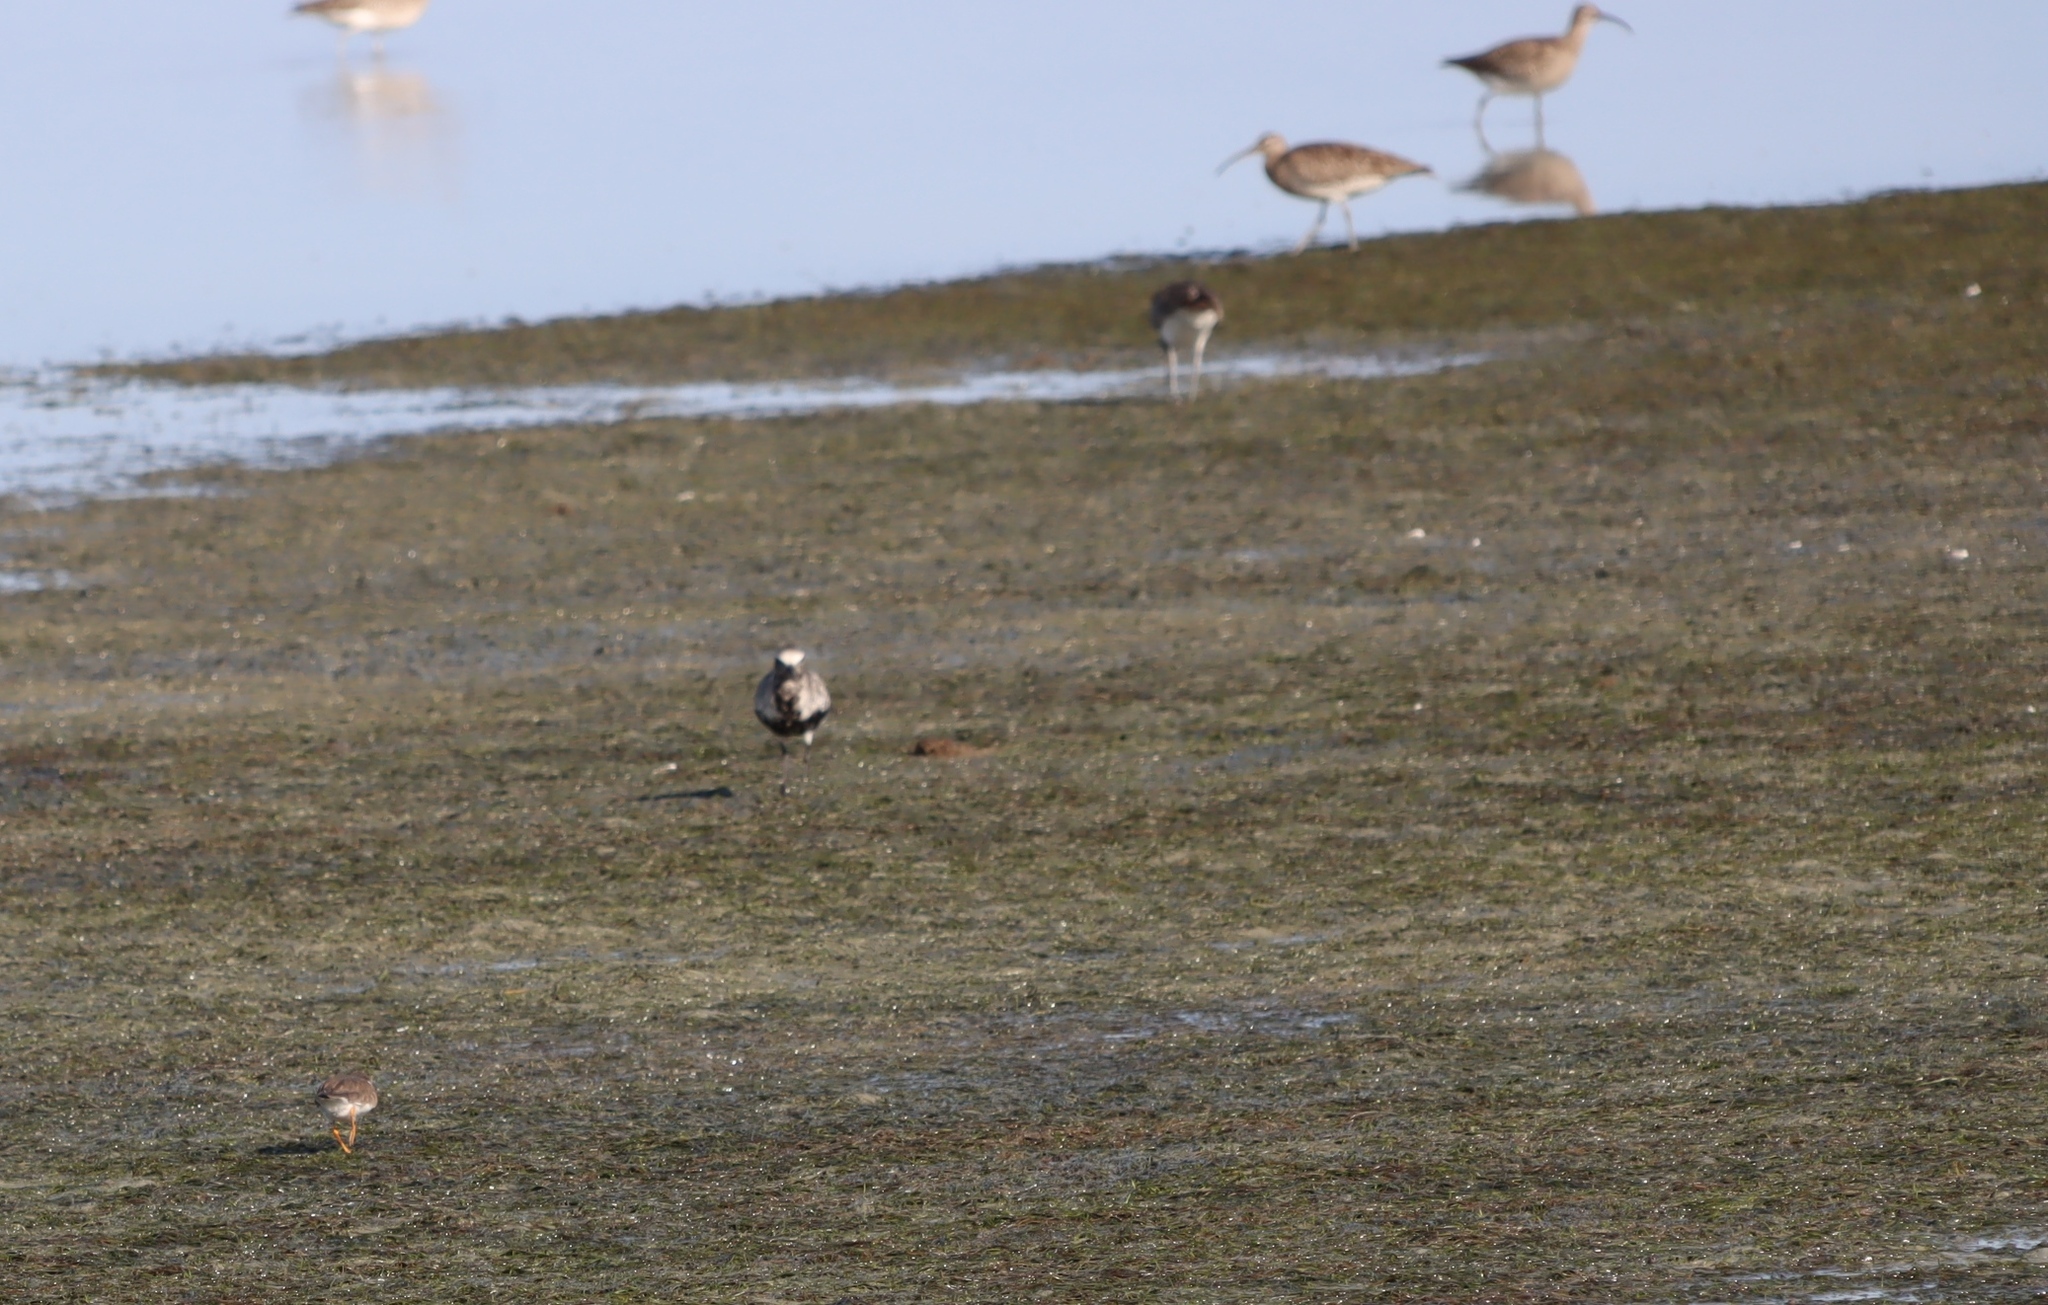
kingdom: Animalia
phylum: Chordata
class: Aves
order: Charadriiformes
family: Charadriidae
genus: Pluvialis
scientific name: Pluvialis squatarola
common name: Grey plover
